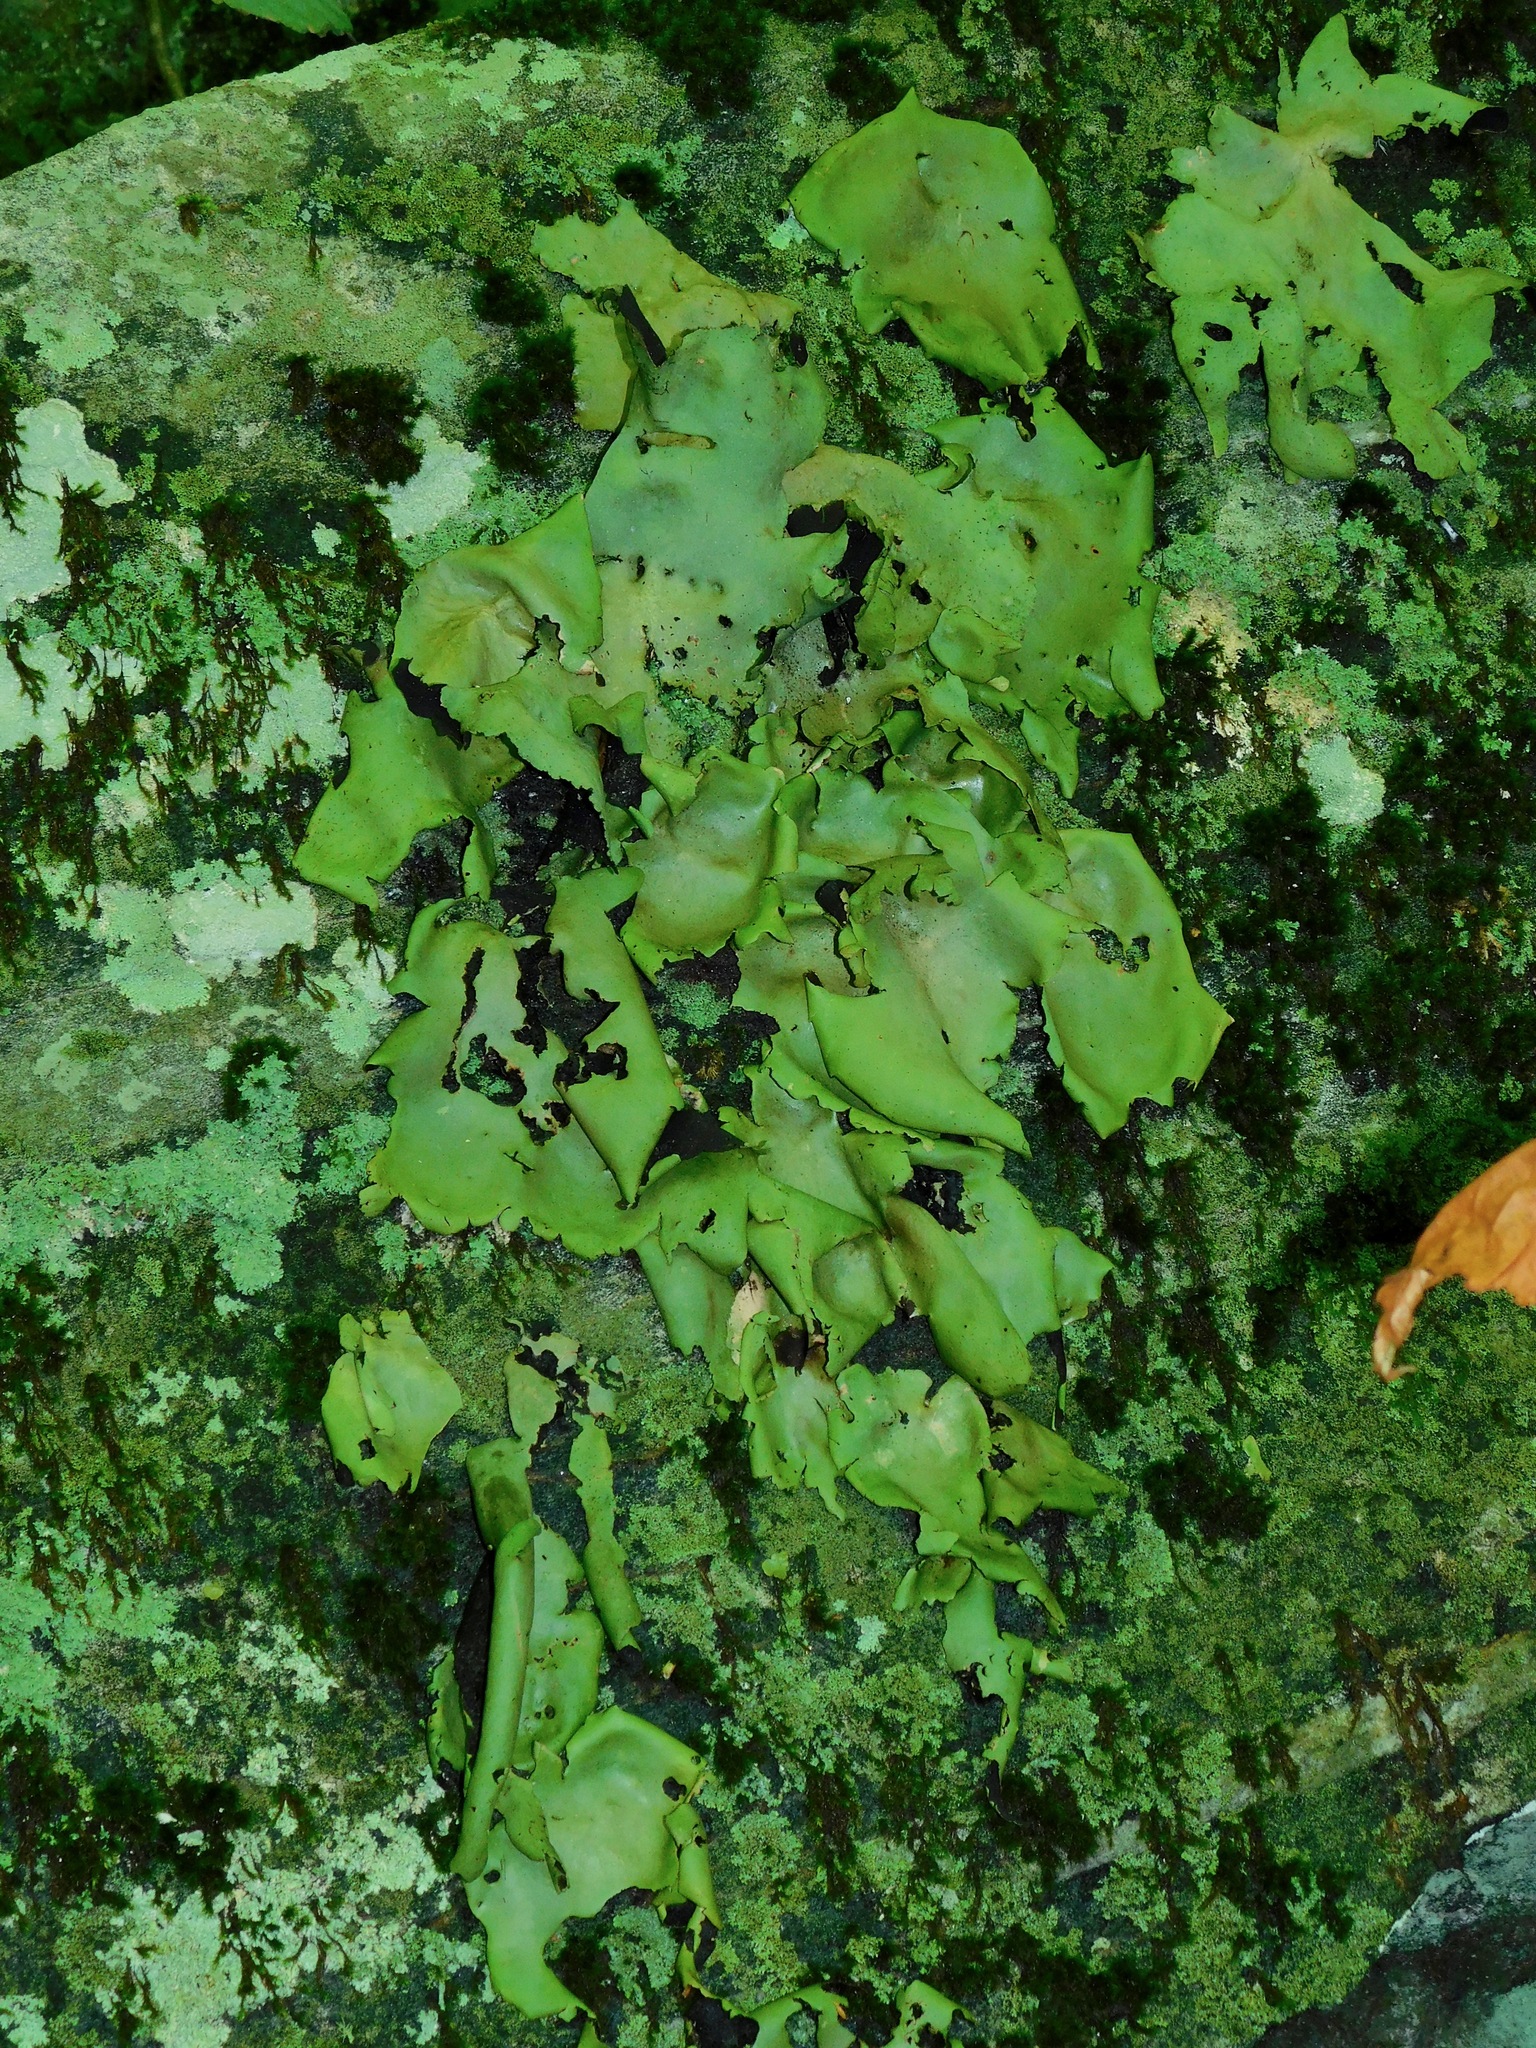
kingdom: Fungi
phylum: Ascomycota
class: Lecanoromycetes
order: Umbilicariales
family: Umbilicariaceae
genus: Umbilicaria
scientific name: Umbilicaria mammulata
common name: Smooth rock tripe
